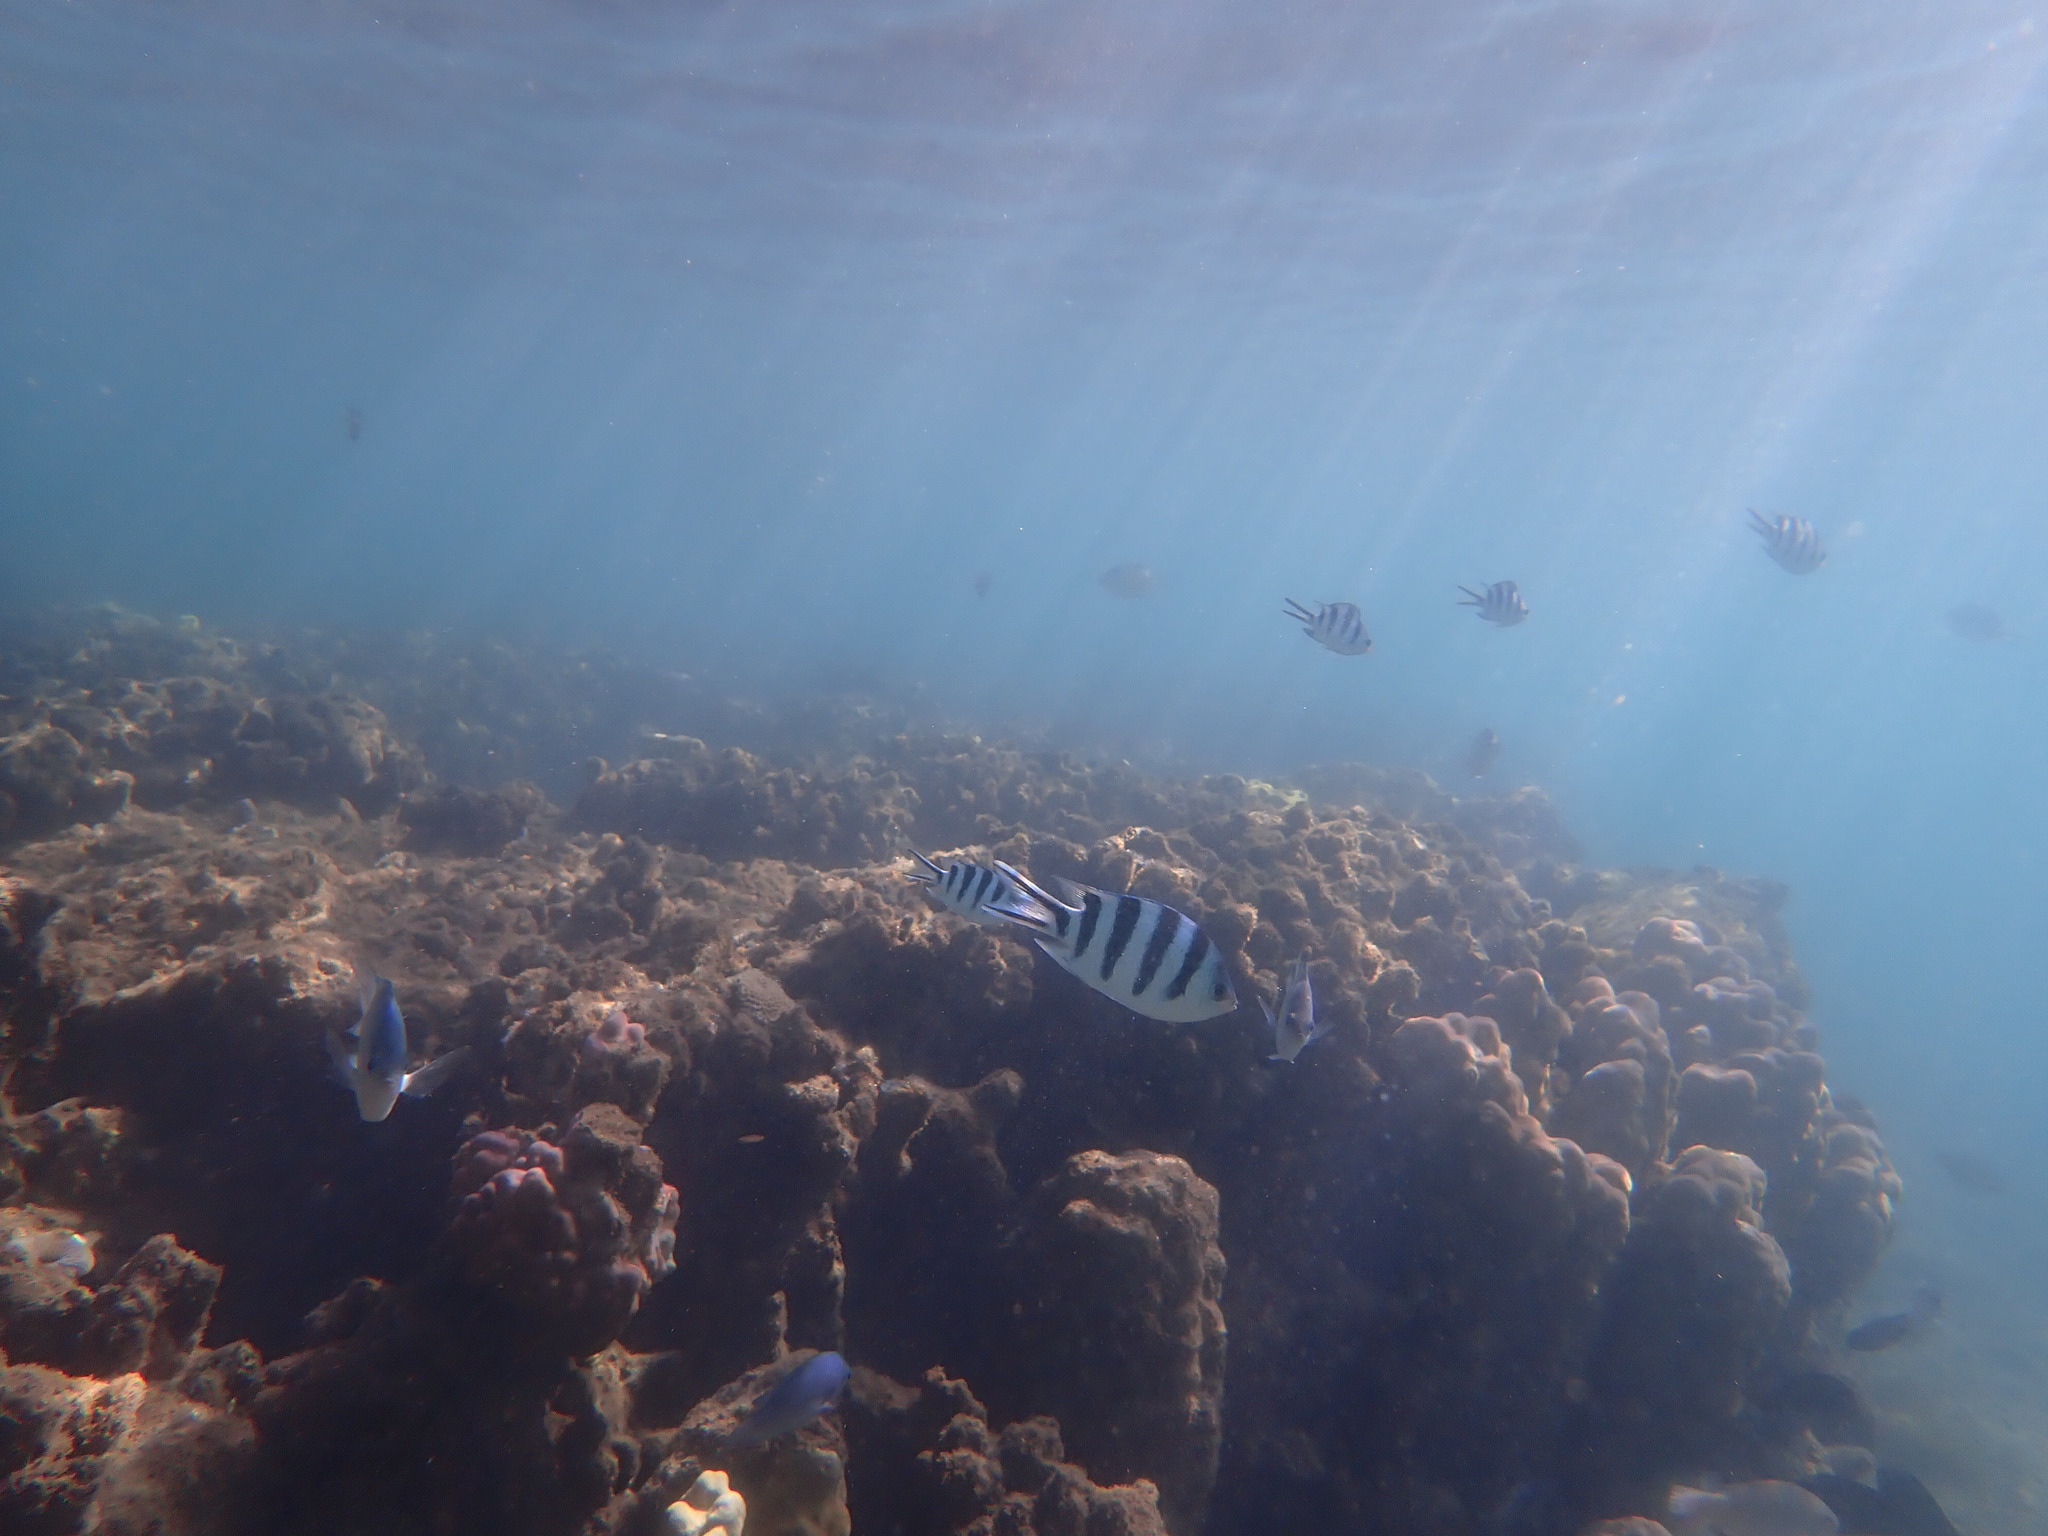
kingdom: Animalia
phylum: Chordata
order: Perciformes
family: Pomacentridae
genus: Abudefduf
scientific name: Abudefduf sexfasciatus
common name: Scissortail sergeant
